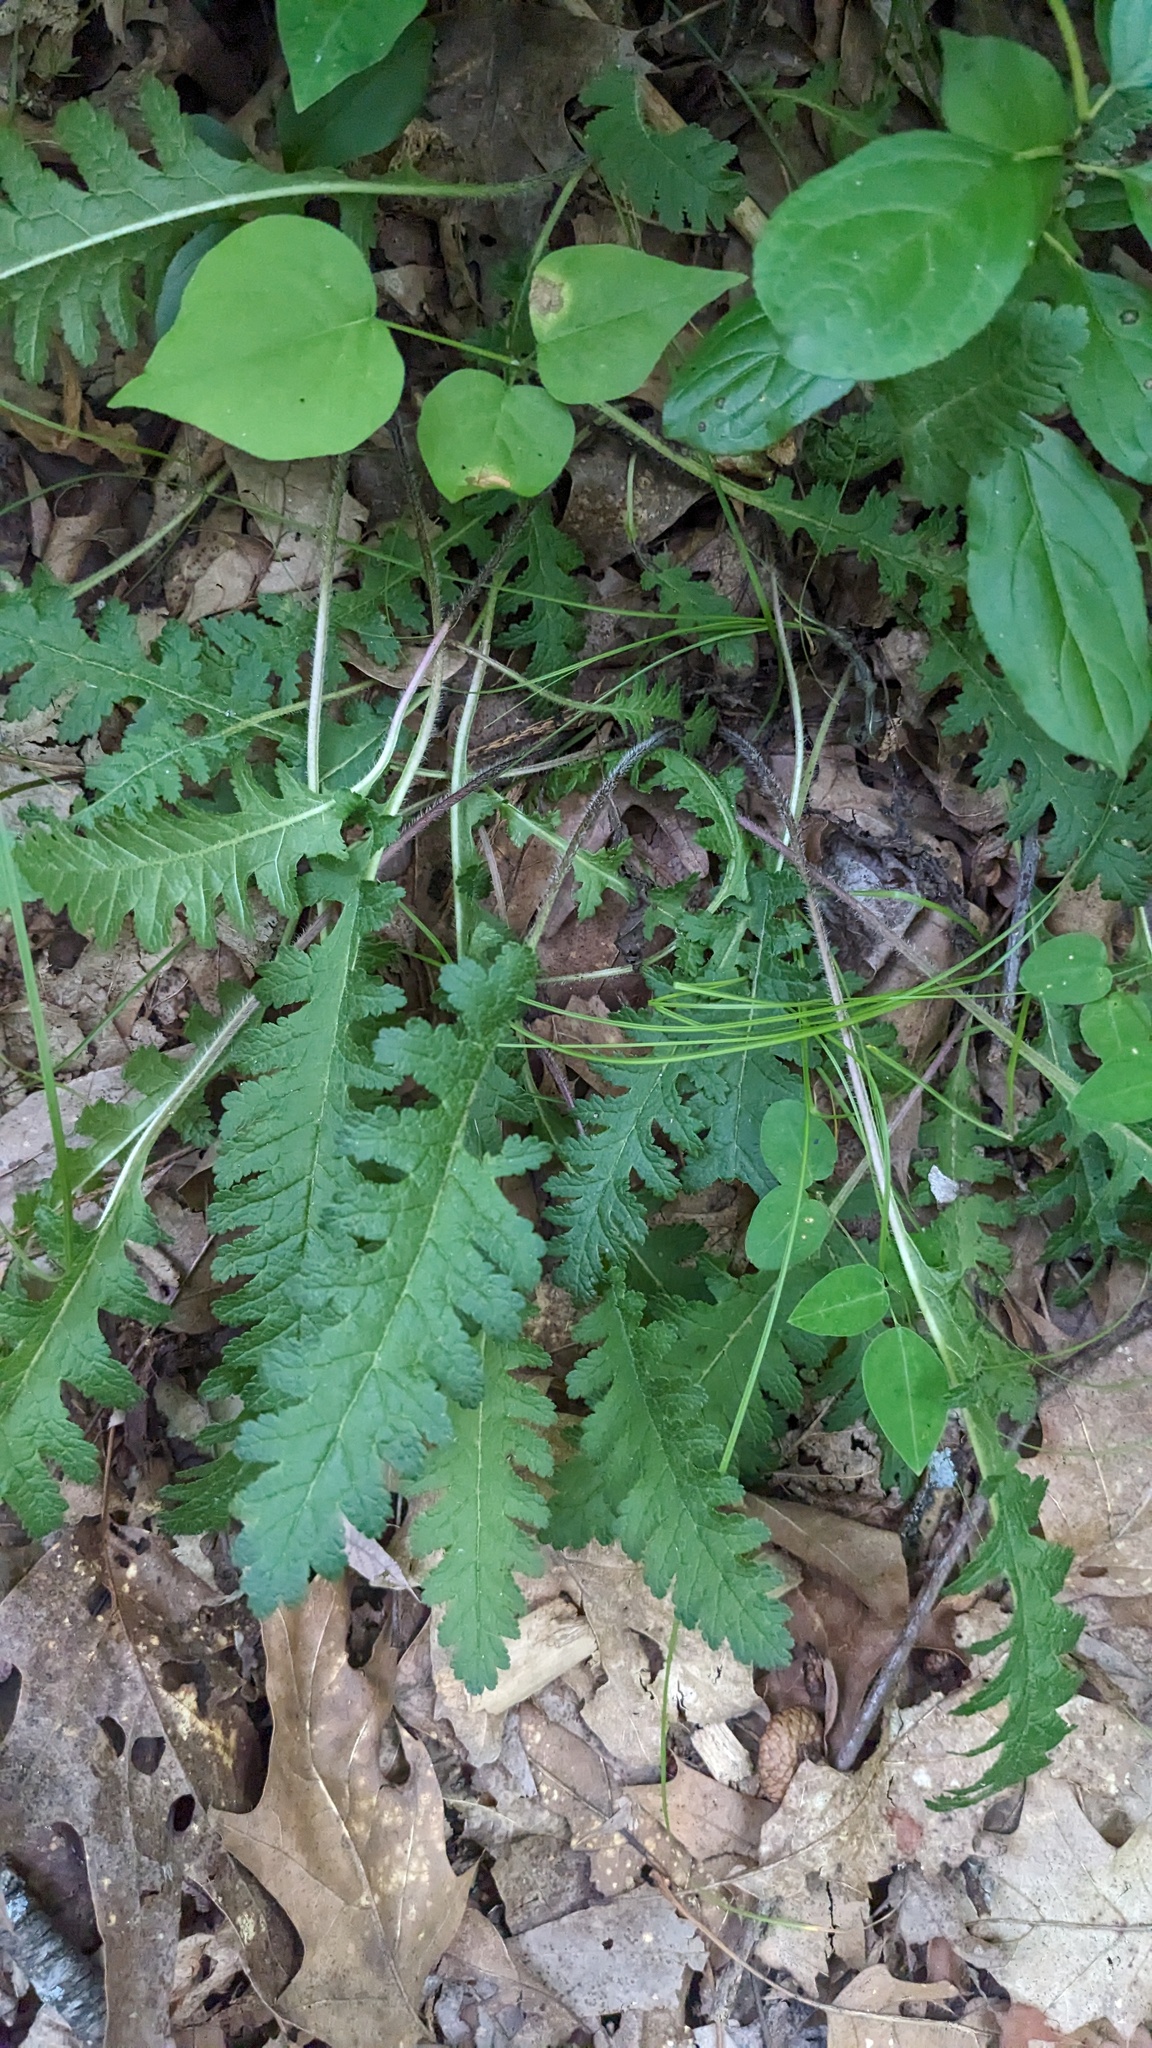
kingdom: Plantae
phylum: Tracheophyta
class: Magnoliopsida
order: Lamiales
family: Orobanchaceae
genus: Pedicularis
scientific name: Pedicularis canadensis
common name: Early lousewort
